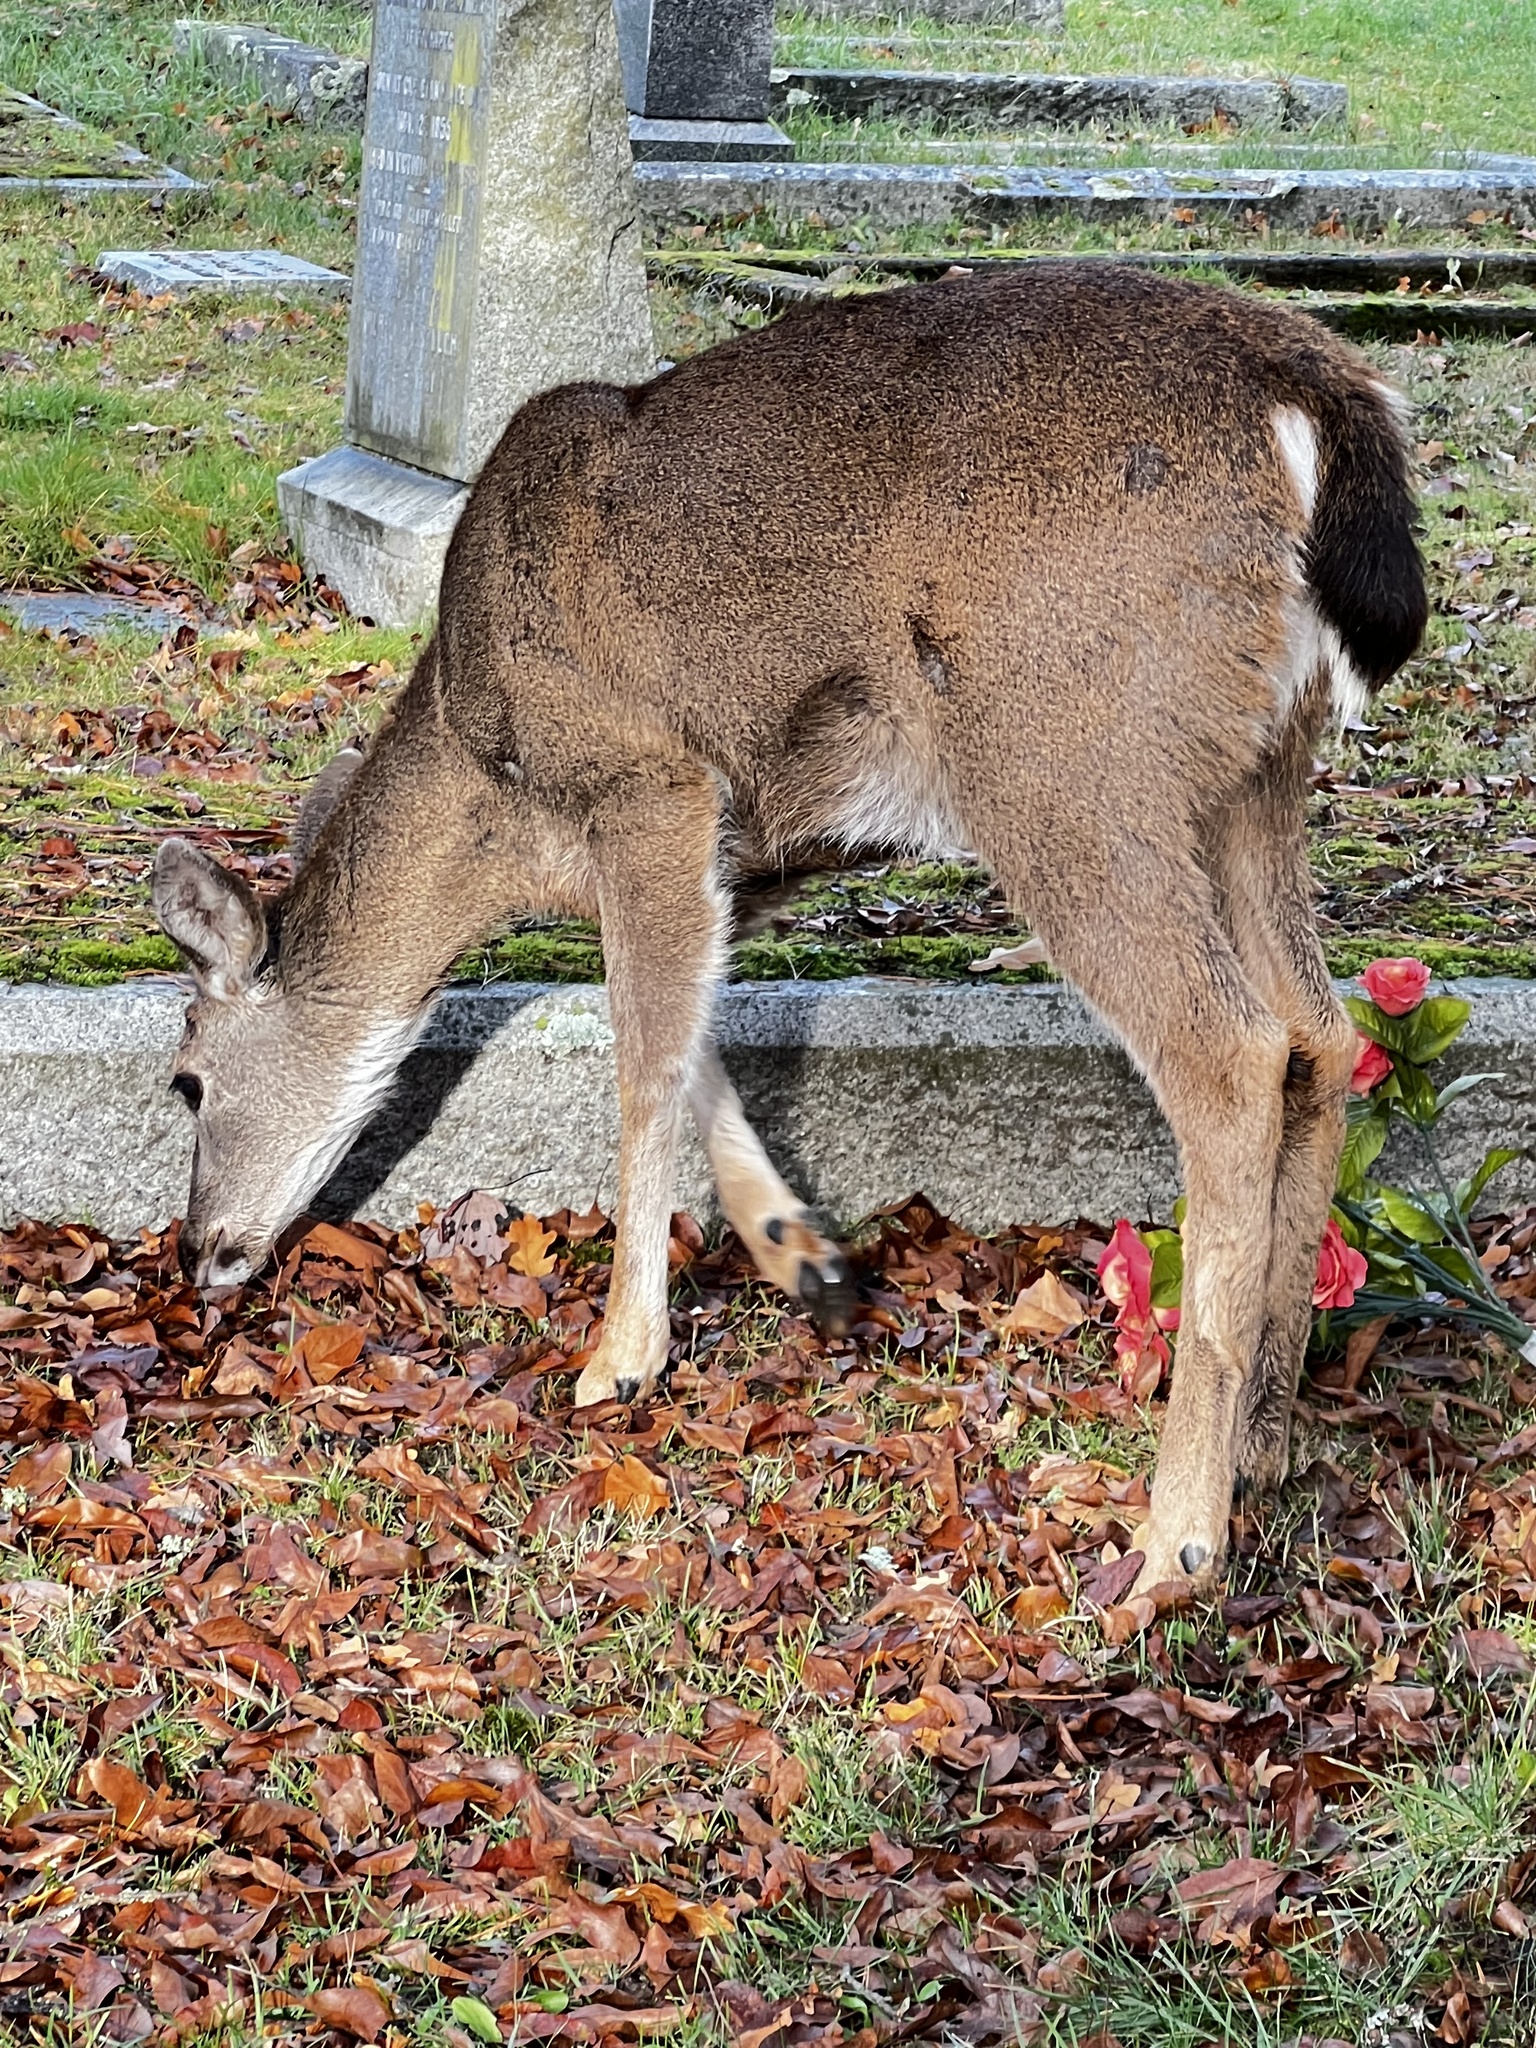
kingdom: Animalia
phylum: Chordata
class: Mammalia
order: Artiodactyla
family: Cervidae
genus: Odocoileus
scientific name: Odocoileus hemionus
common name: Mule deer
